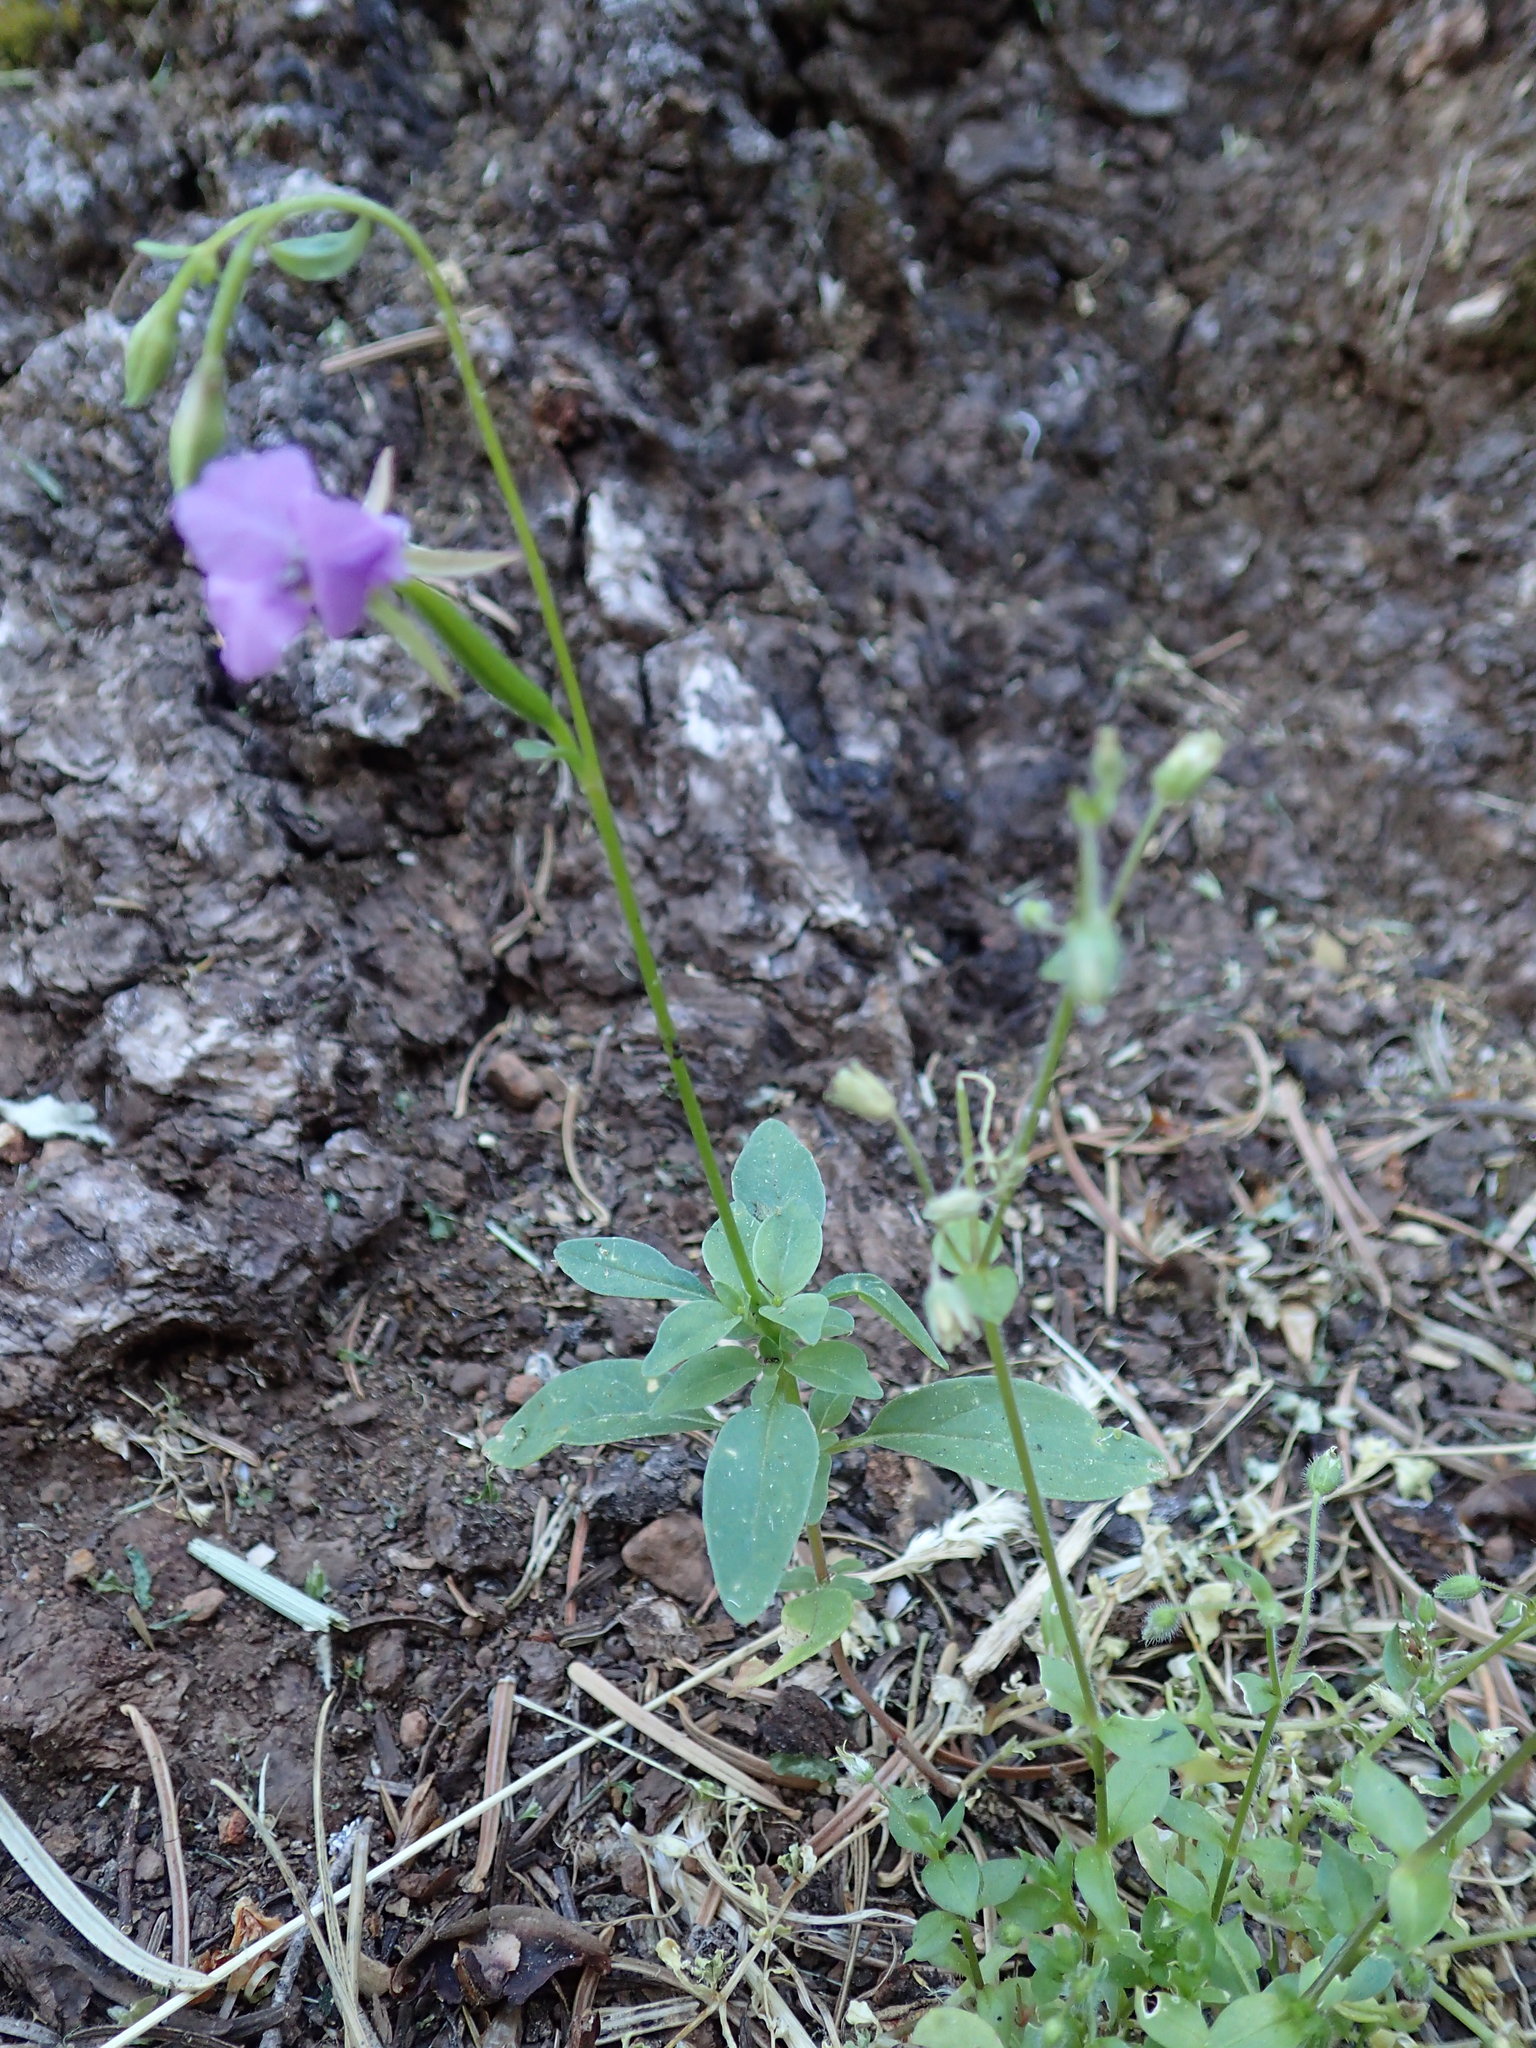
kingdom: Plantae
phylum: Tracheophyta
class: Magnoliopsida
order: Myrtales
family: Onagraceae
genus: Clarkia
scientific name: Clarkia rhomboidea
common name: Broadleaf clarkia
